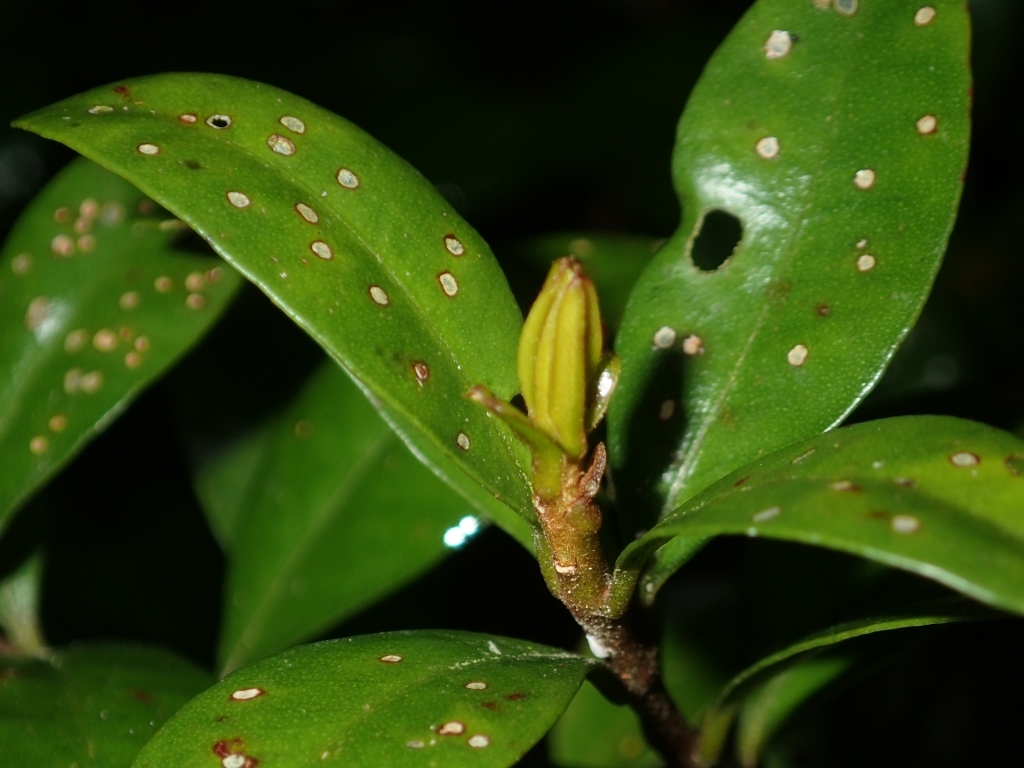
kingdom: Plantae
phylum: Tracheophyta
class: Magnoliopsida
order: Myrtales
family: Myrtaceae
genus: Metrosideros
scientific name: Metrosideros fulgens
